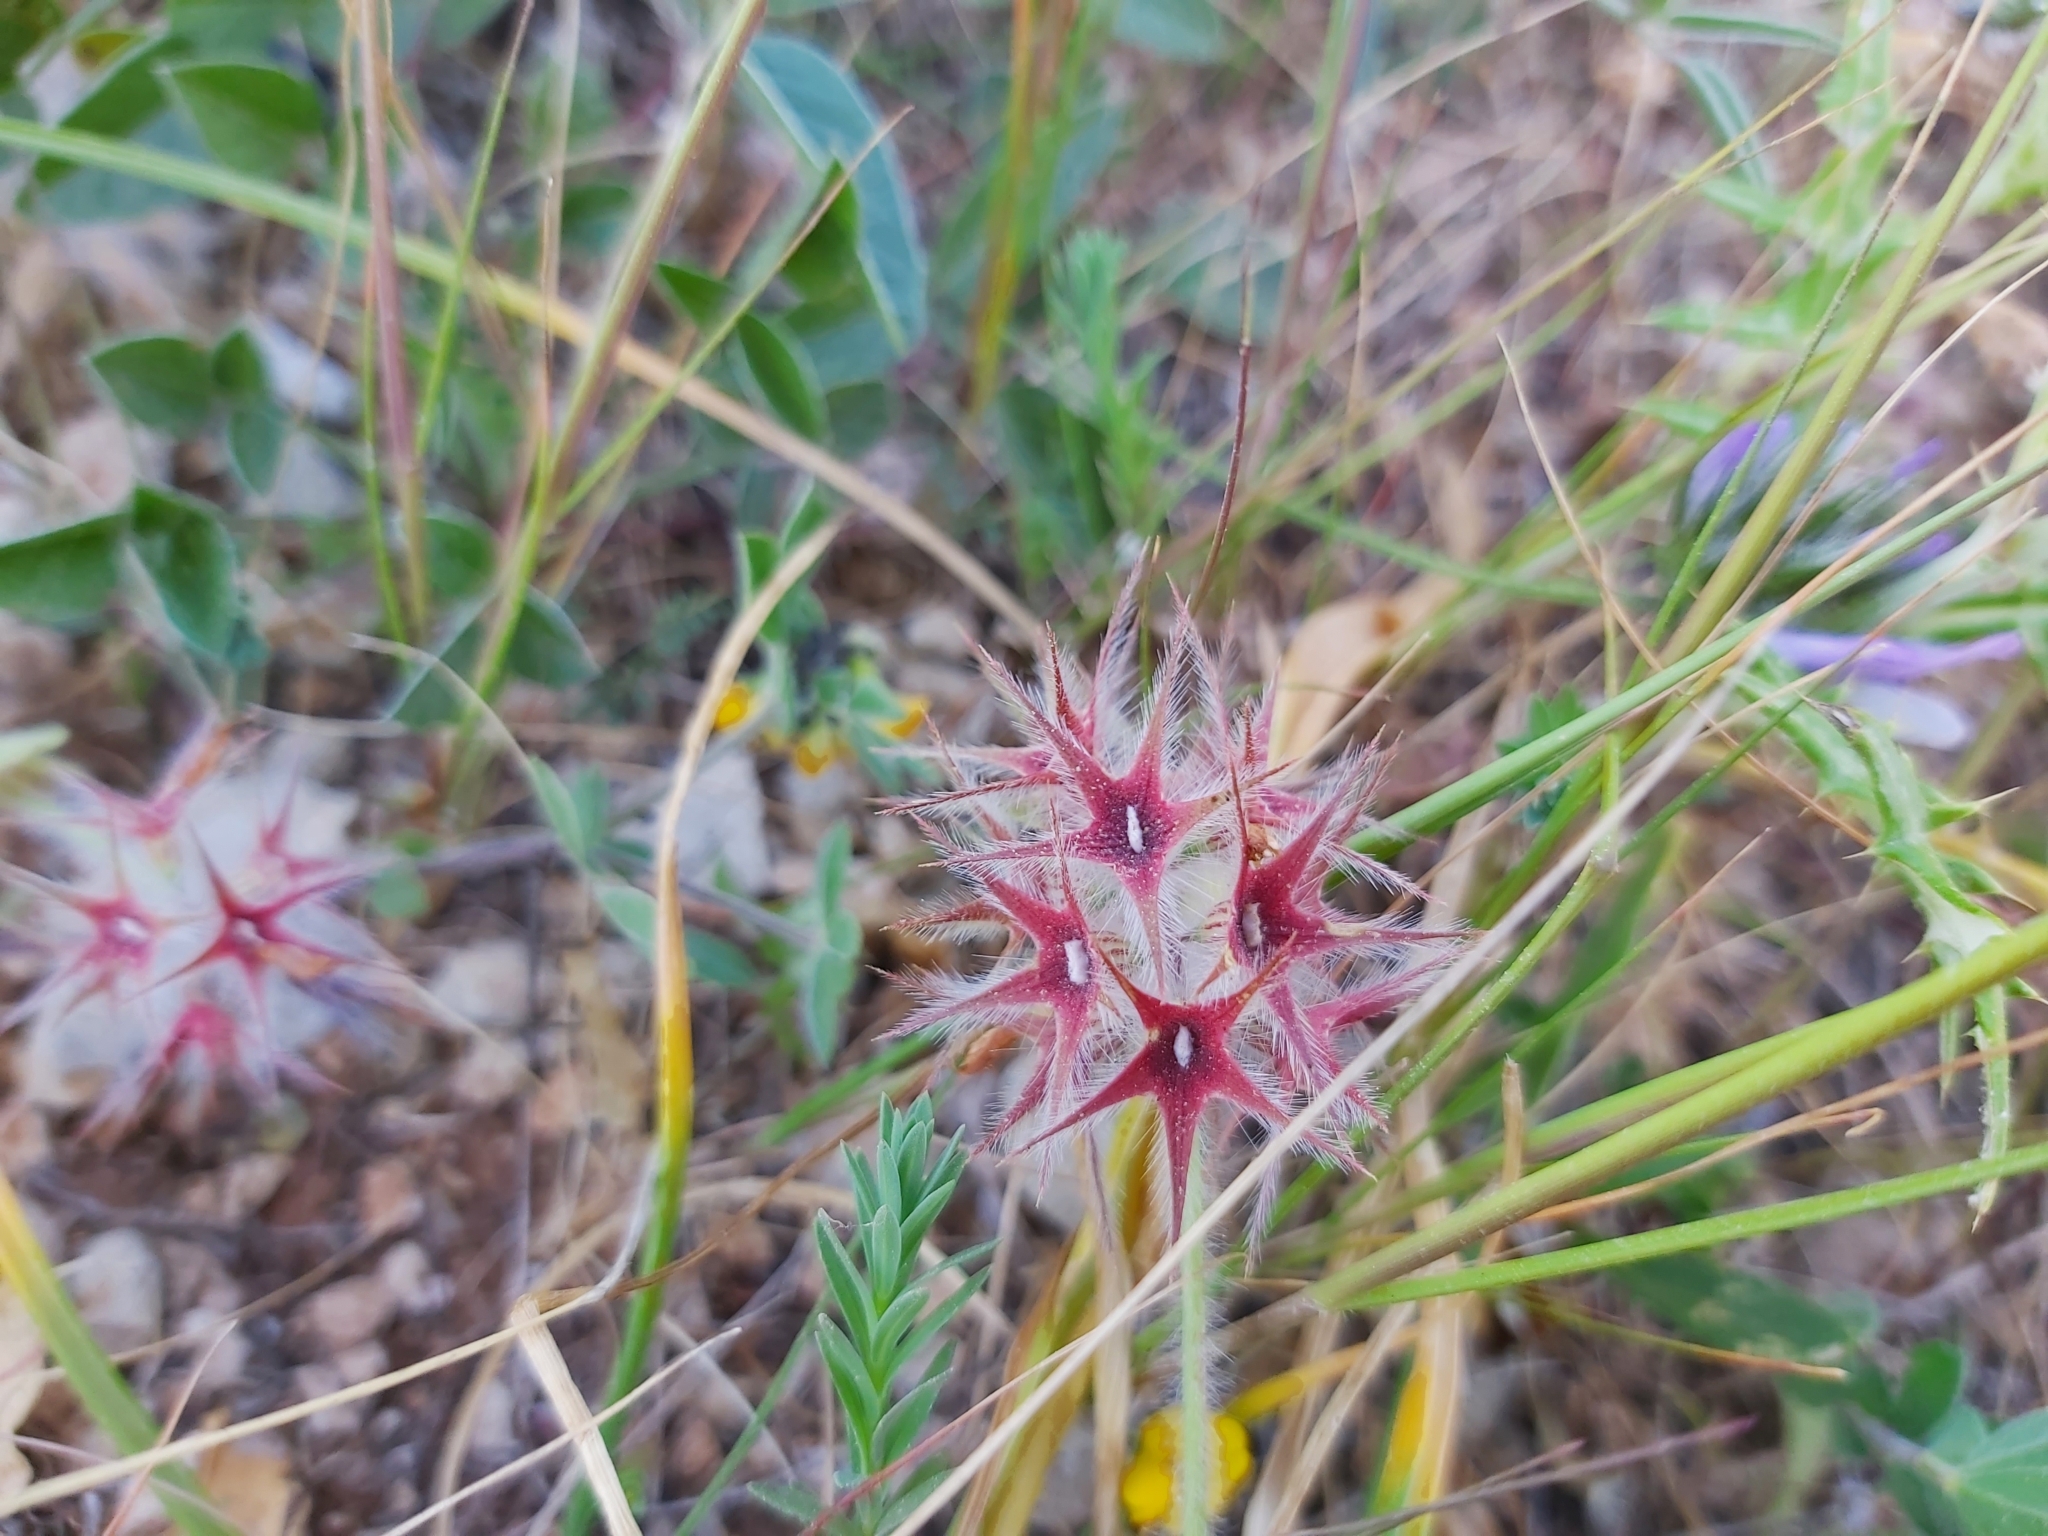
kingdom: Plantae
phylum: Tracheophyta
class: Magnoliopsida
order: Fabales
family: Fabaceae
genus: Trifolium
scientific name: Trifolium stellatum
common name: Starry clover
